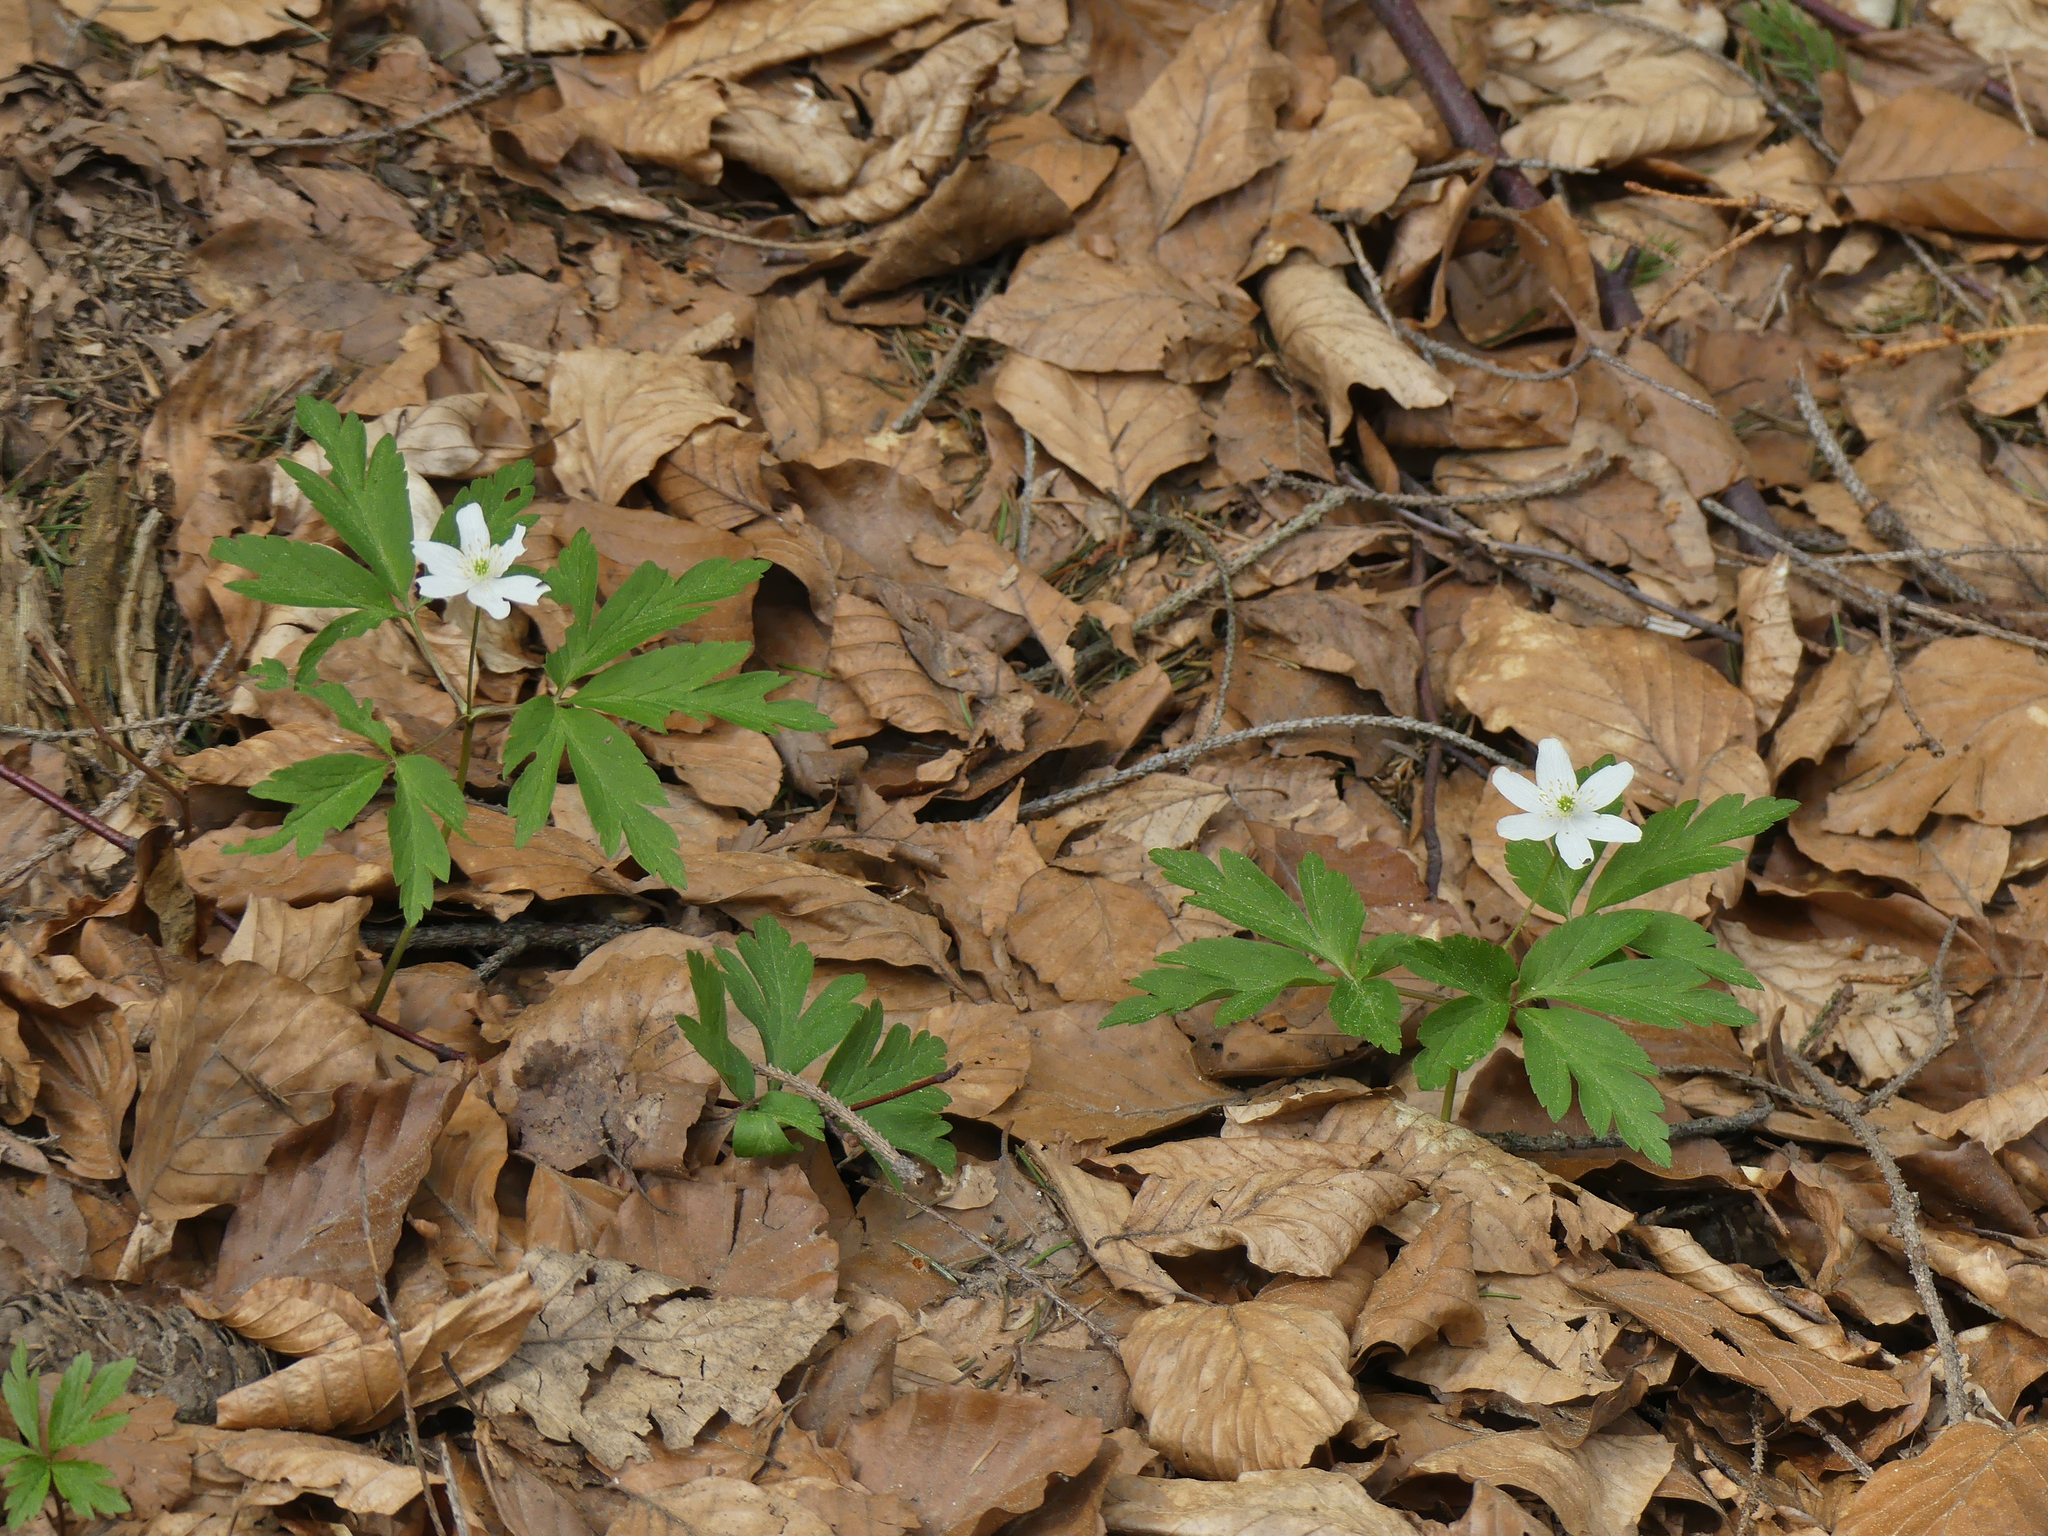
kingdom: Plantae
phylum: Tracheophyta
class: Magnoliopsida
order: Ranunculales
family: Ranunculaceae
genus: Anemone
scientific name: Anemone nemorosa
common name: Wood anemone
